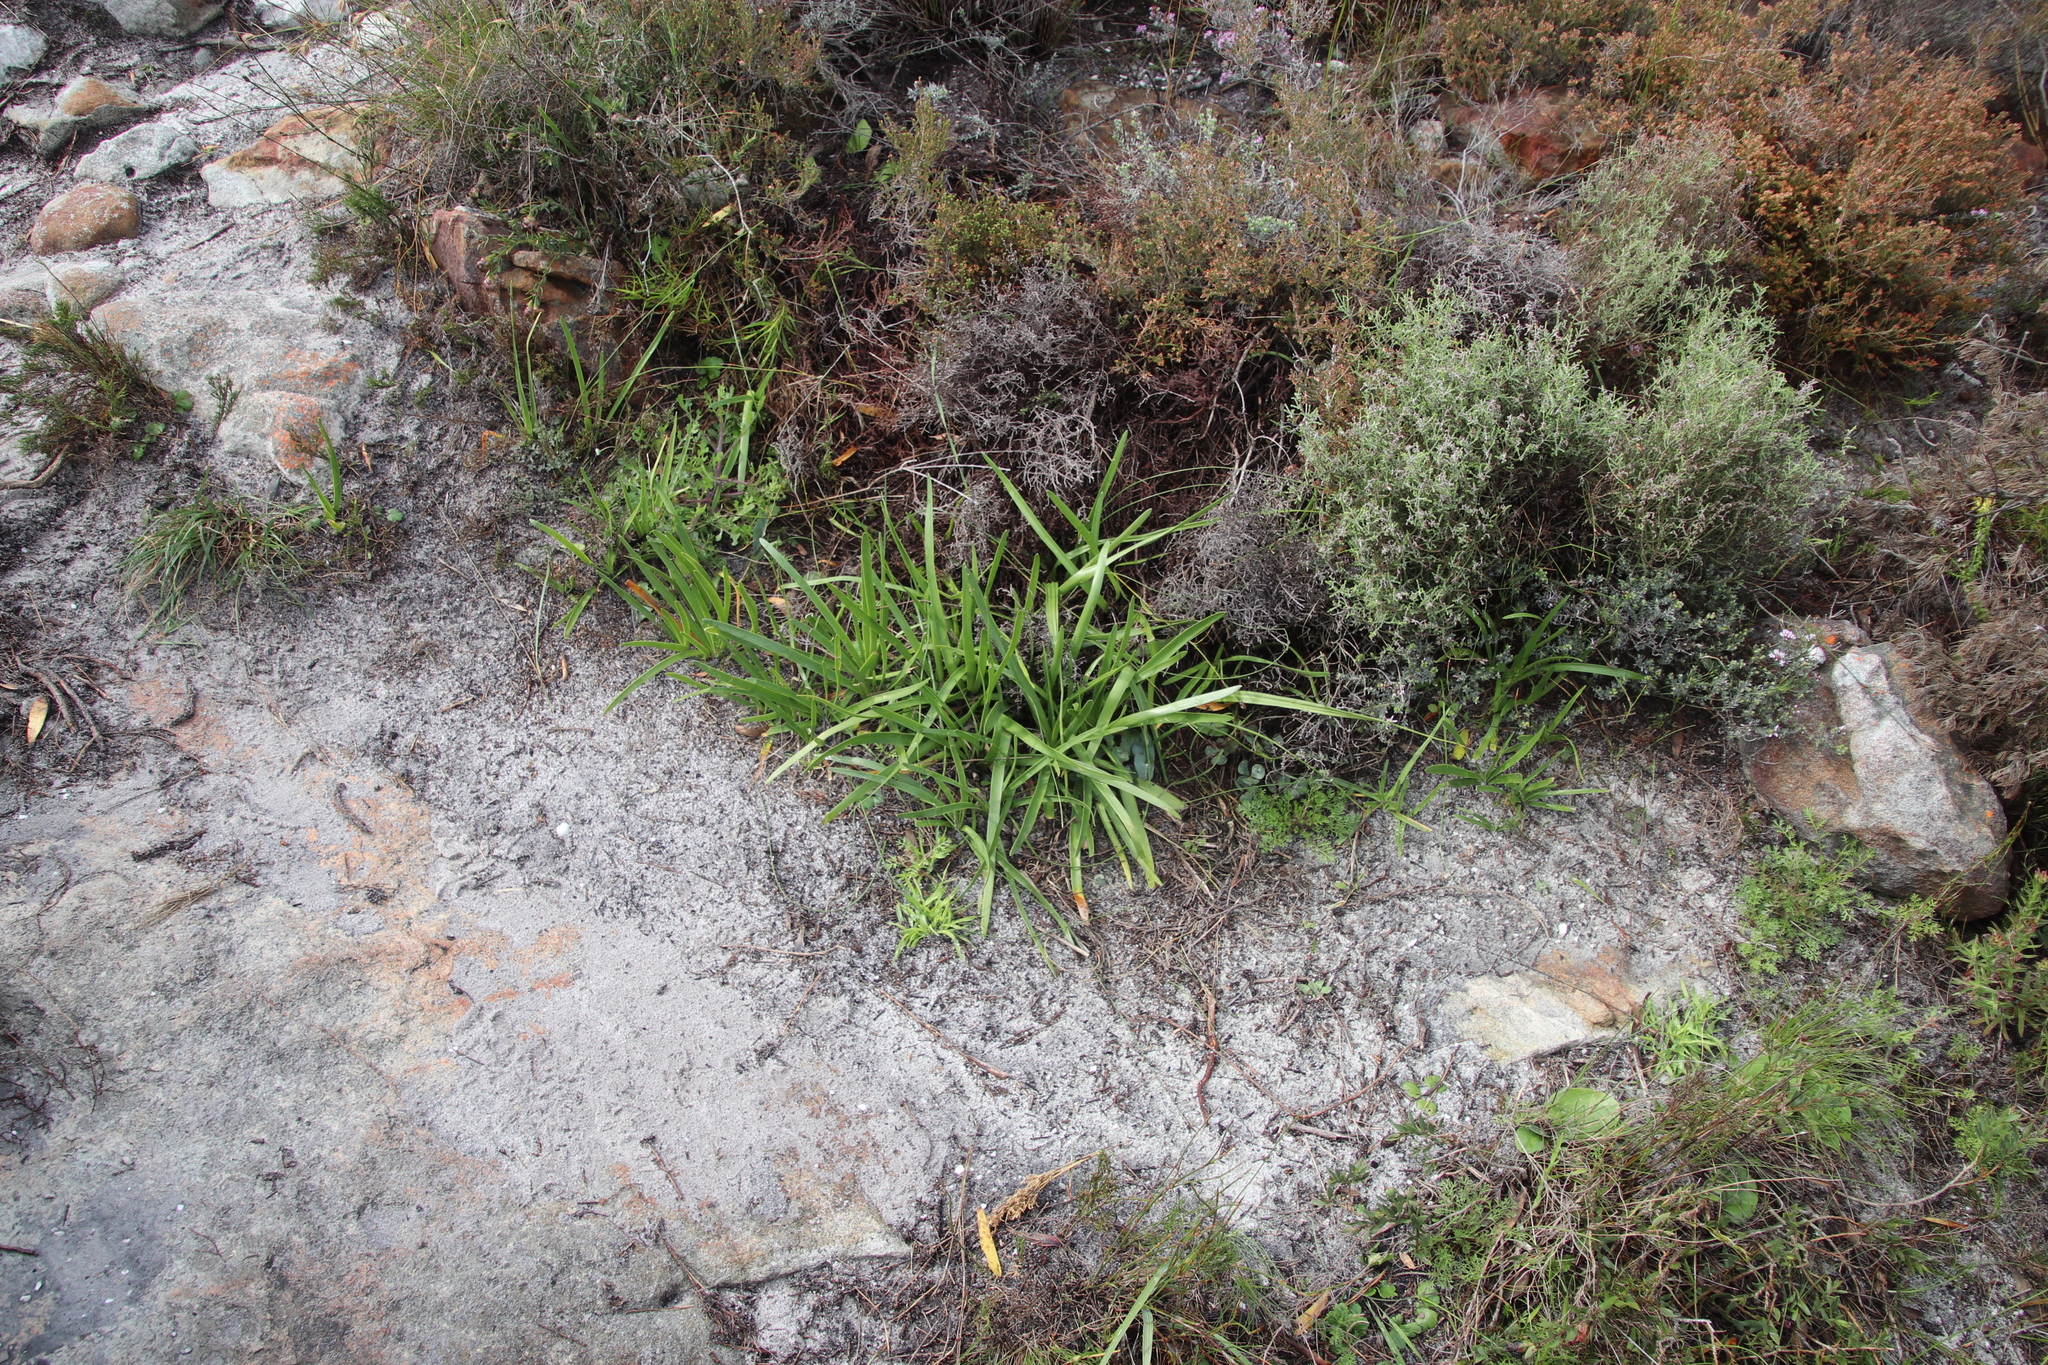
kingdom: Plantae
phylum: Tracheophyta
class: Liliopsida
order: Asparagales
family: Amaryllidaceae
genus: Agapanthus
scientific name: Agapanthus africanus
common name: Lily-of-the-nile
